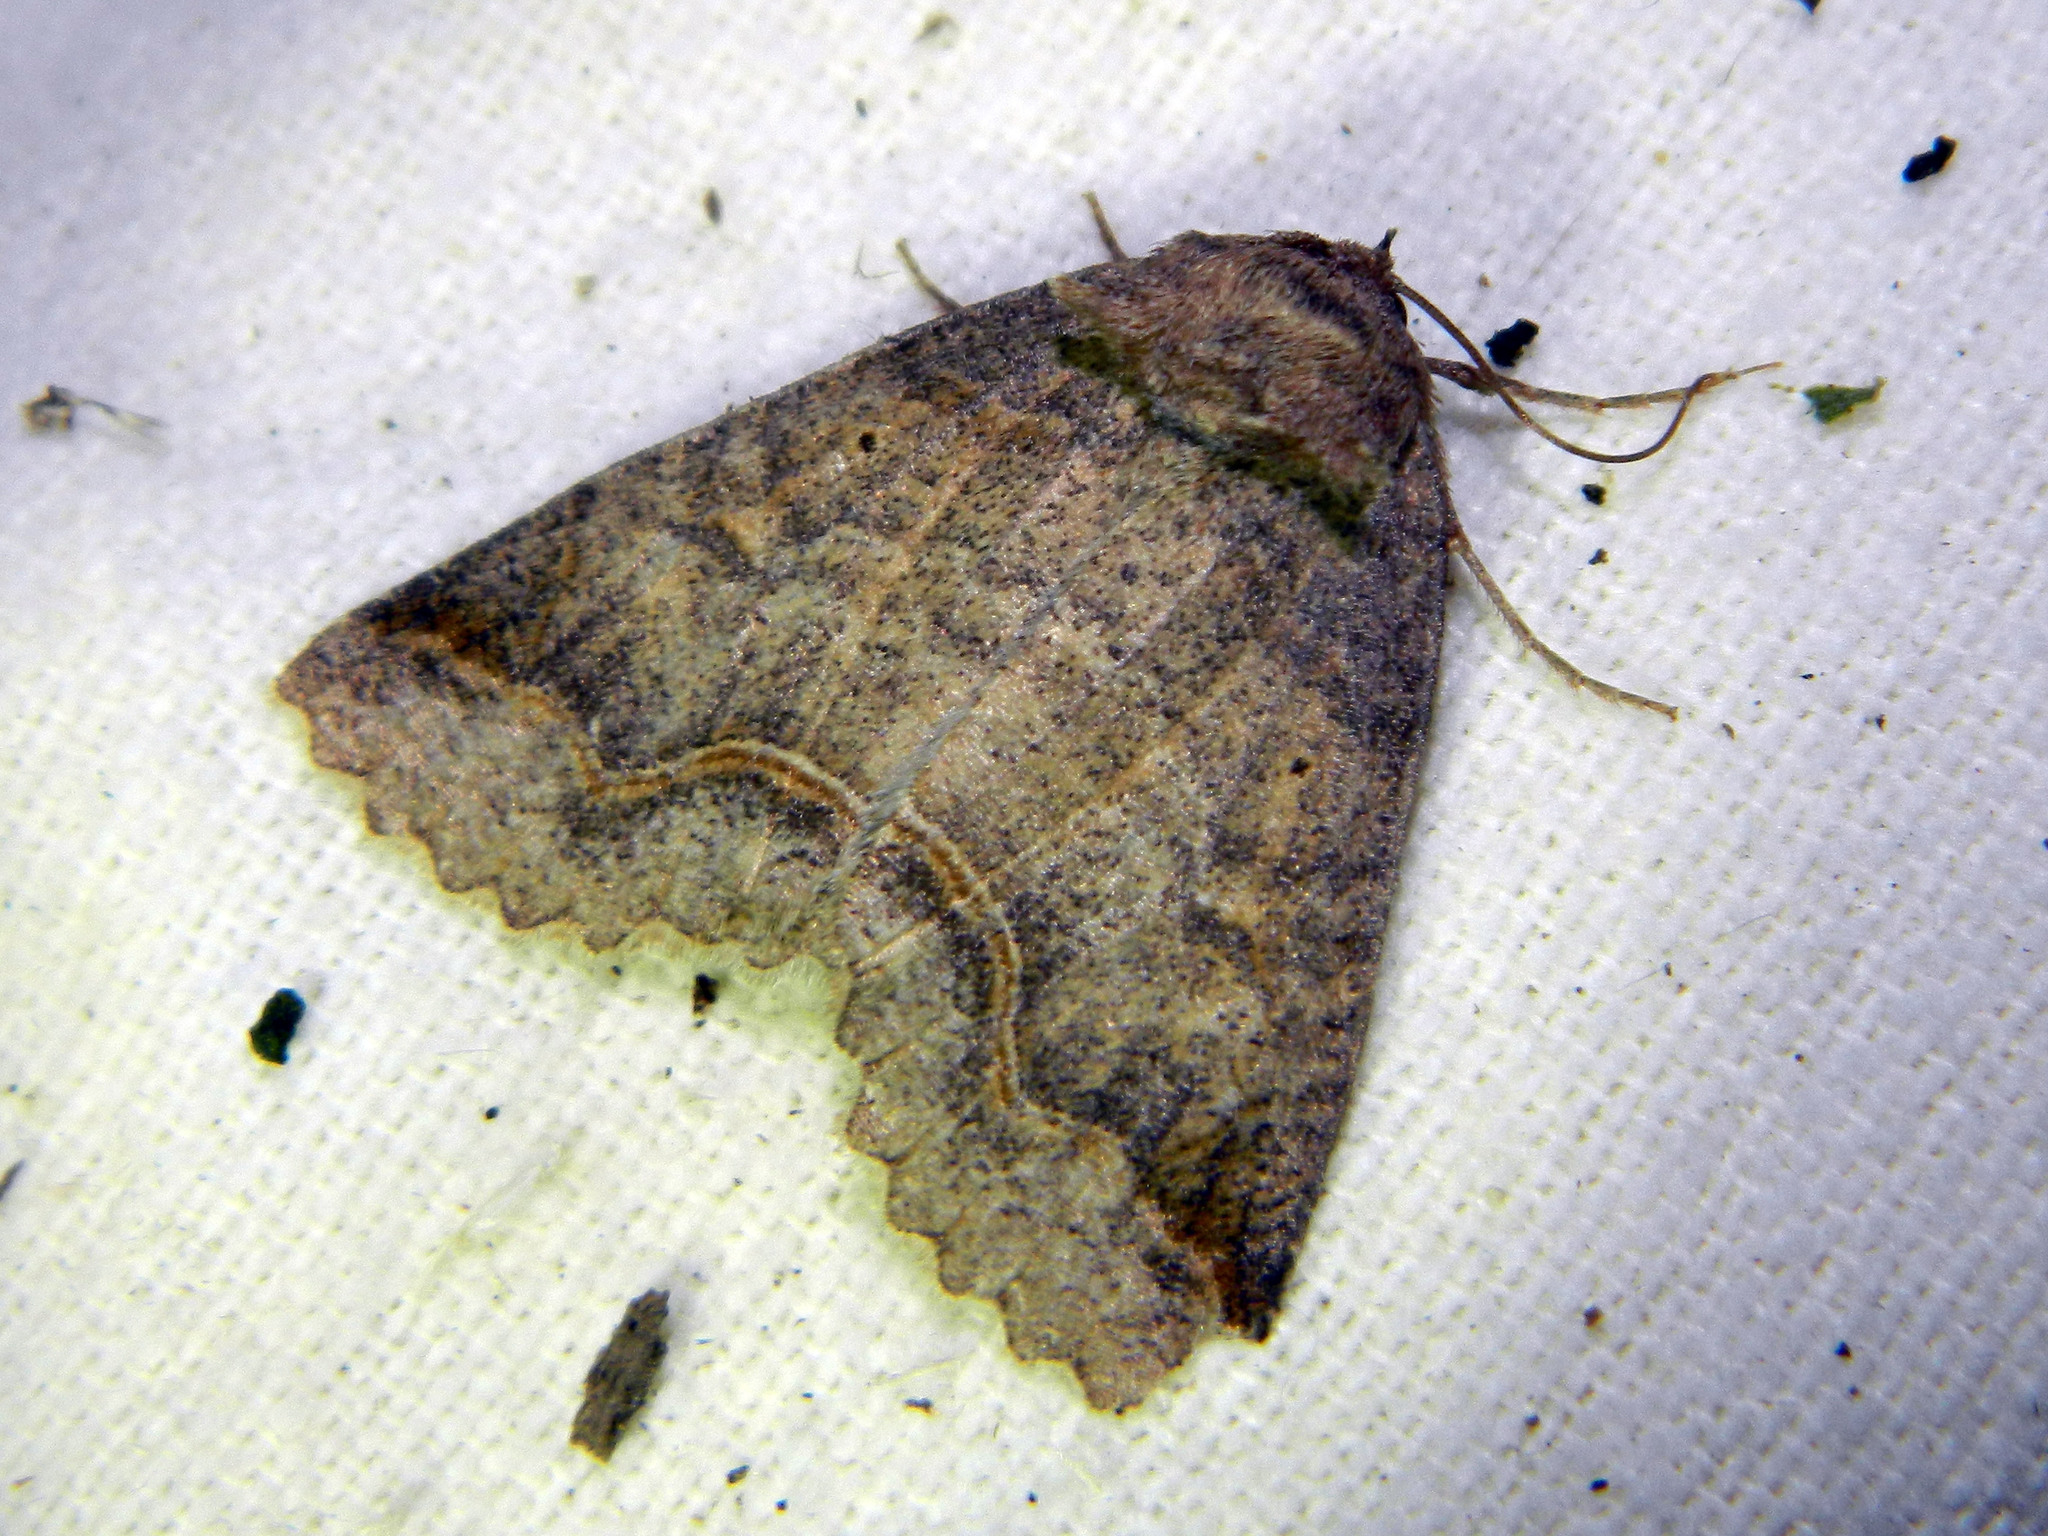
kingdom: Animalia
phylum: Arthropoda
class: Insecta
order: Lepidoptera
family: Erebidae
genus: Zale
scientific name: Zale unilineata
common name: One-lined zale moth
